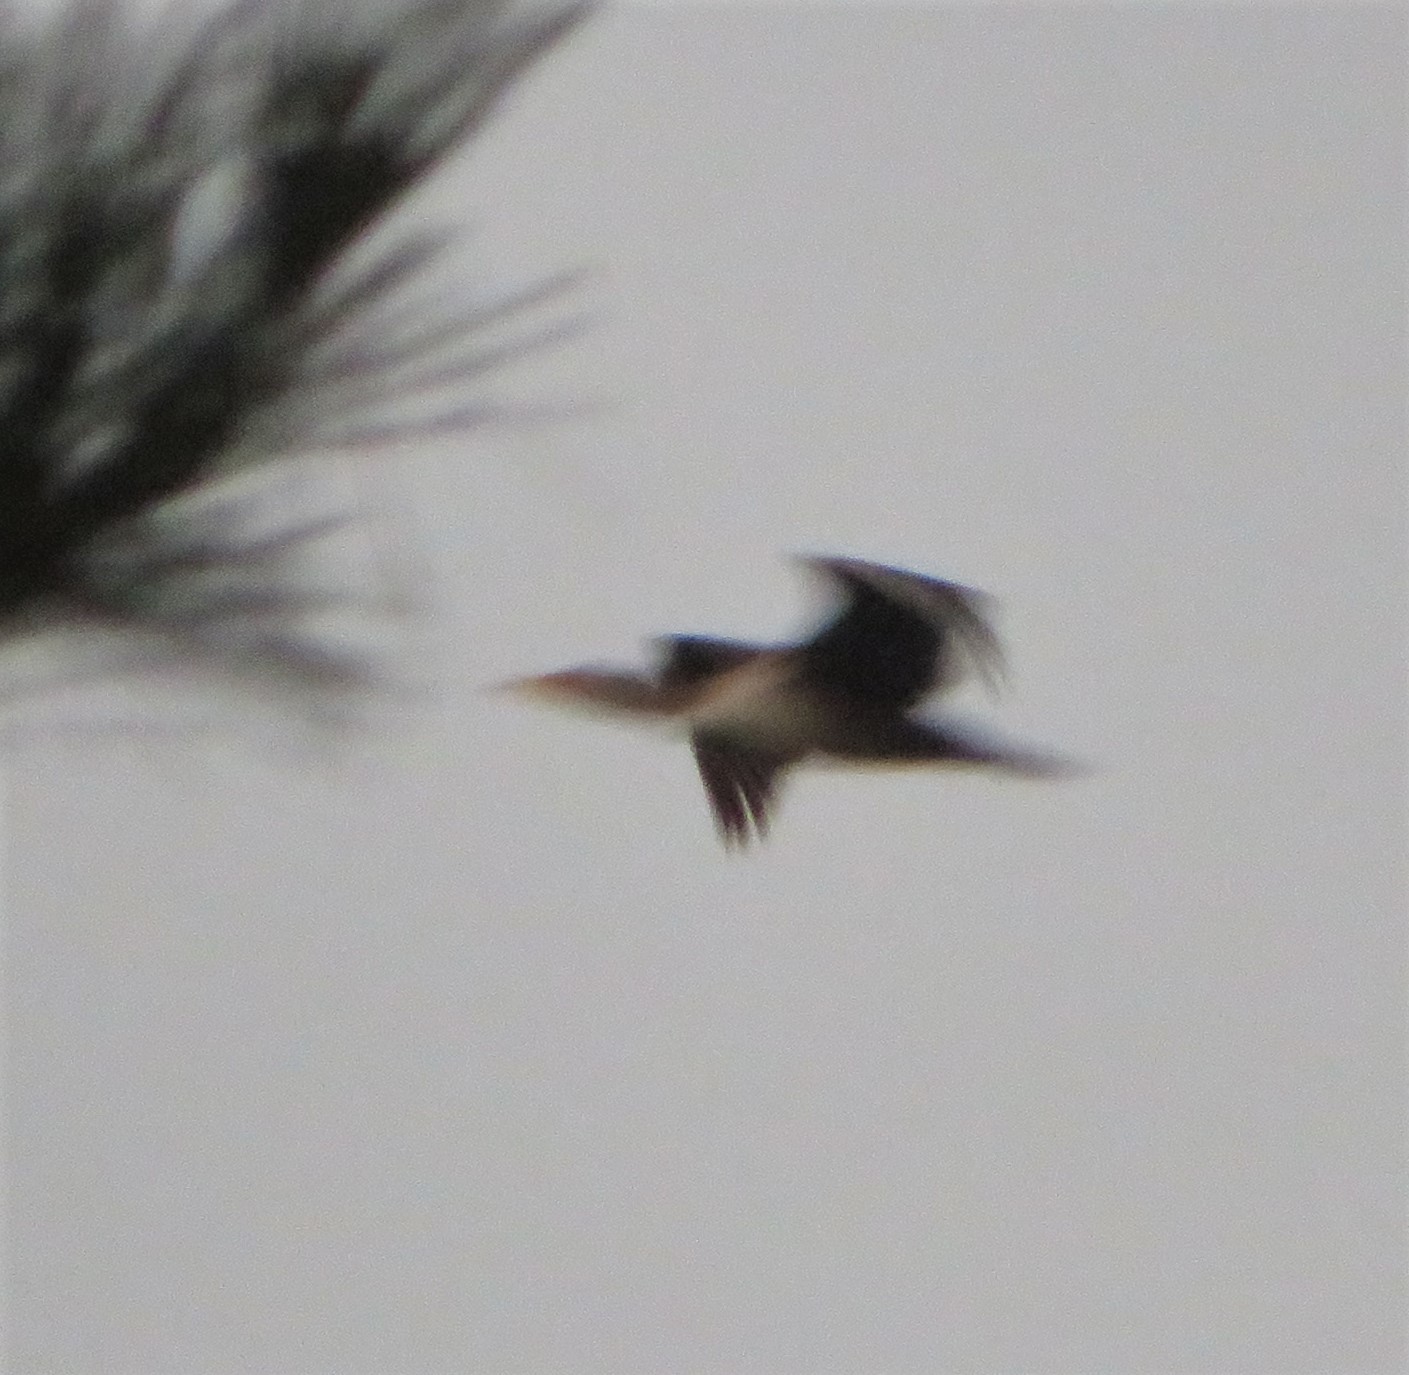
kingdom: Animalia
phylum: Chordata
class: Aves
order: Suliformes
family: Phalacrocoracidae
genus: Phalacrocorax
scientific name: Phalacrocorax auritus
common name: Double-crested cormorant
